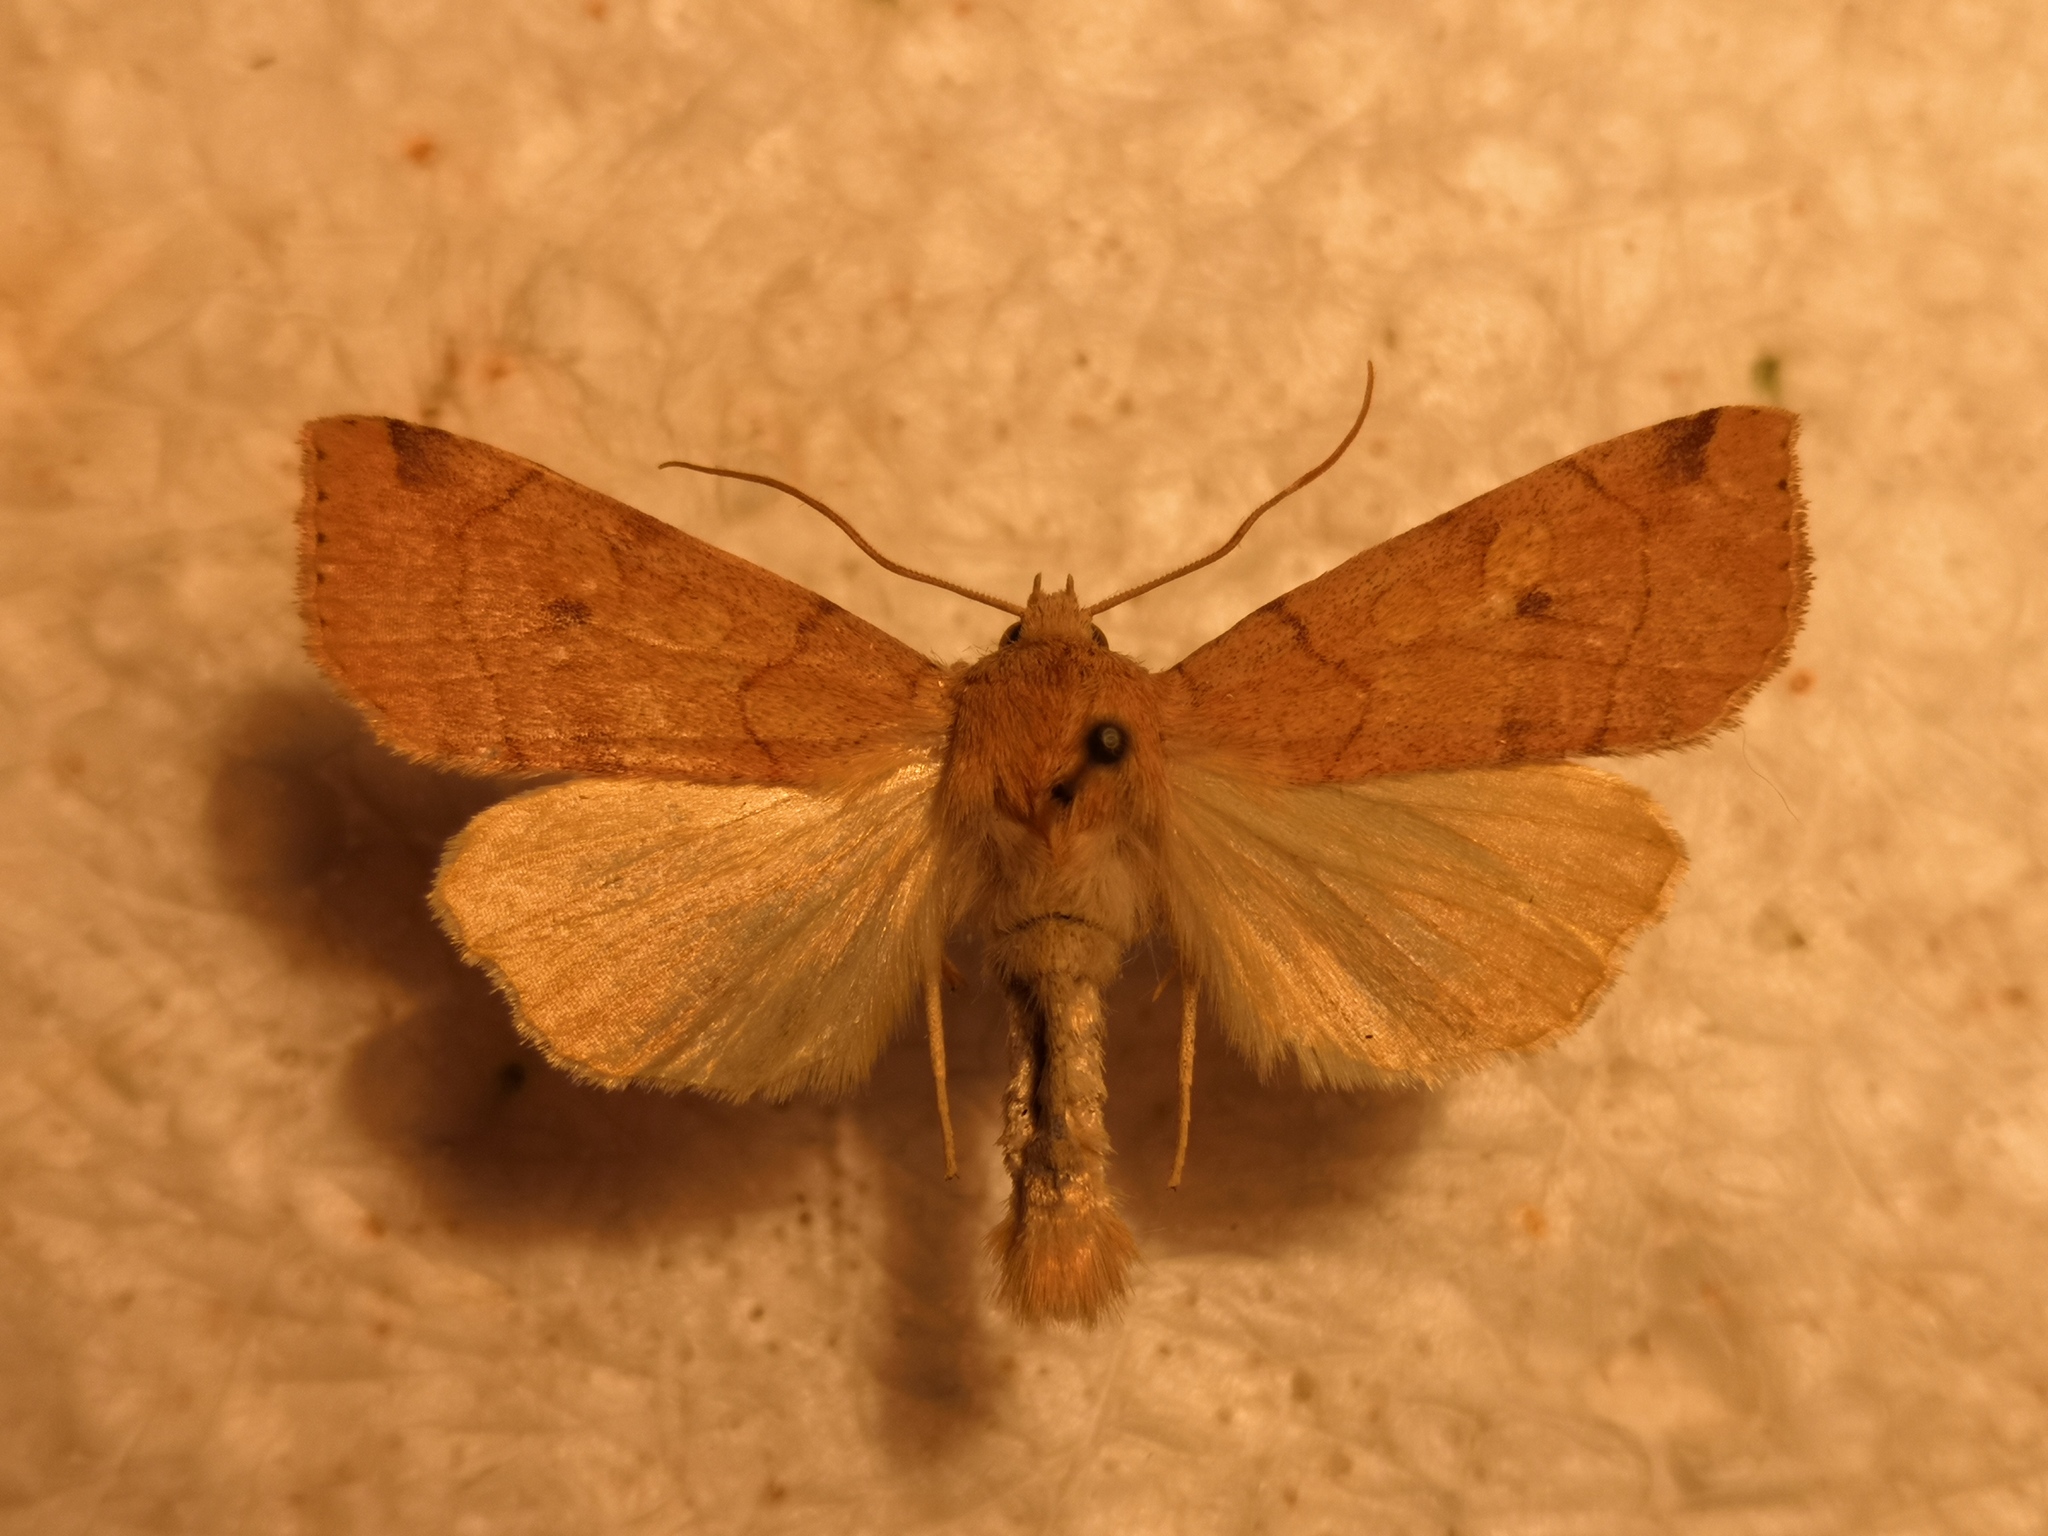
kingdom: Animalia
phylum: Arthropoda
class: Insecta
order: Lepidoptera
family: Noctuidae
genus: Enargia
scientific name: Enargia paleacea
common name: Angle-striped sallow
